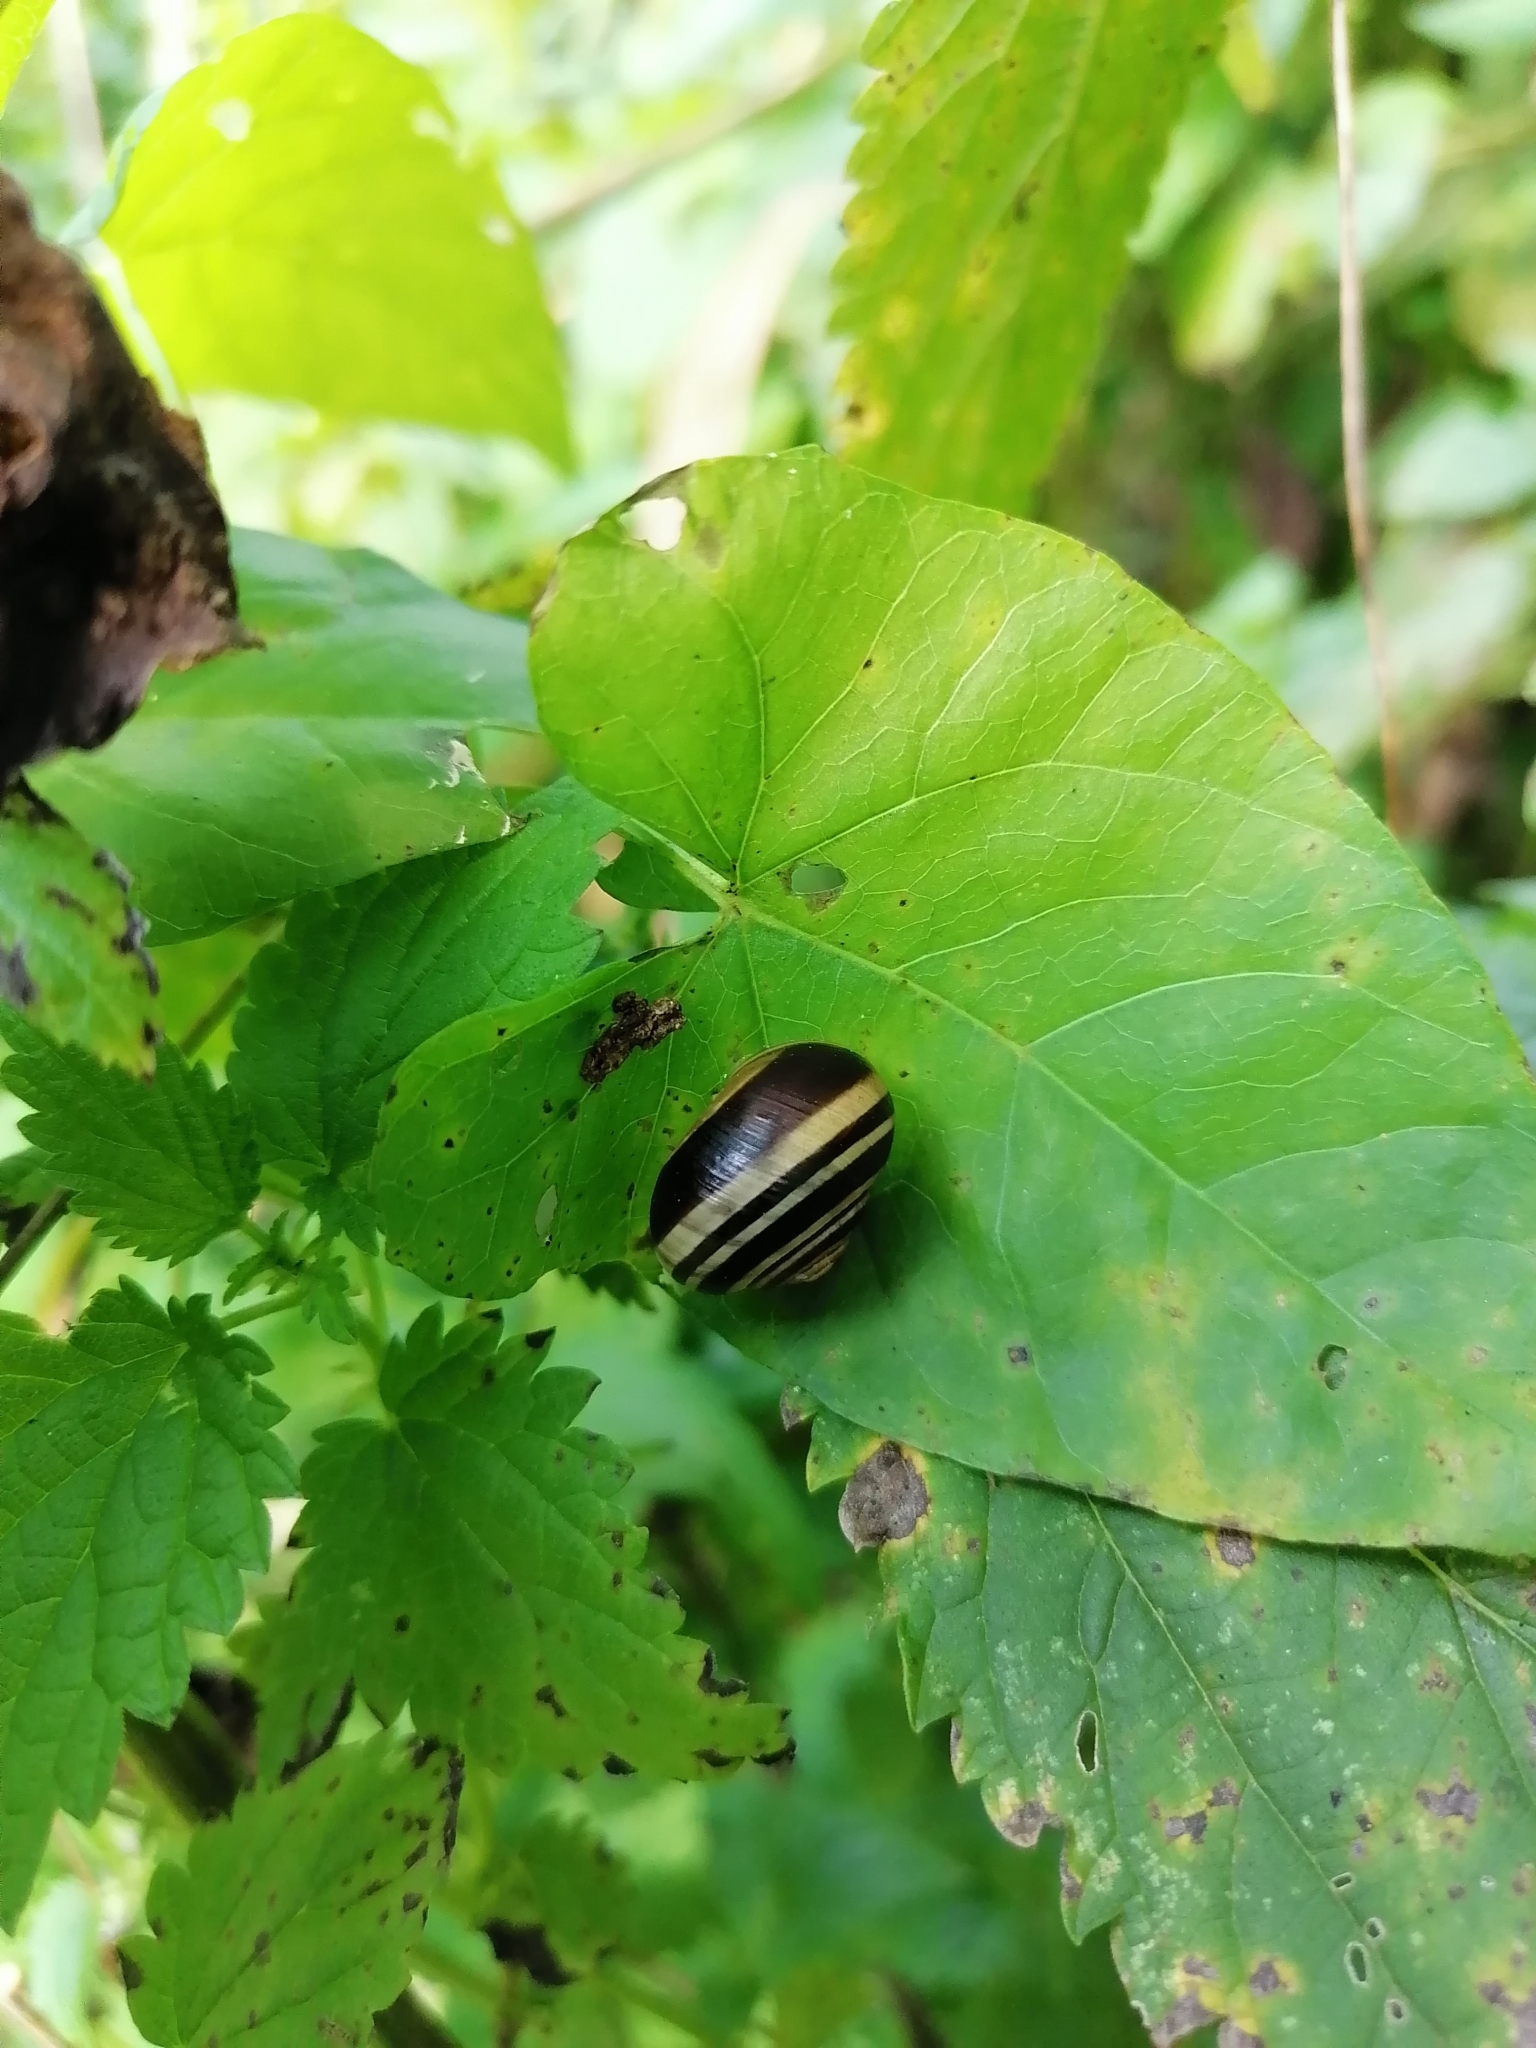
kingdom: Animalia
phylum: Mollusca
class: Gastropoda
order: Stylommatophora
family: Helicidae
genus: Cepaea
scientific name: Cepaea
